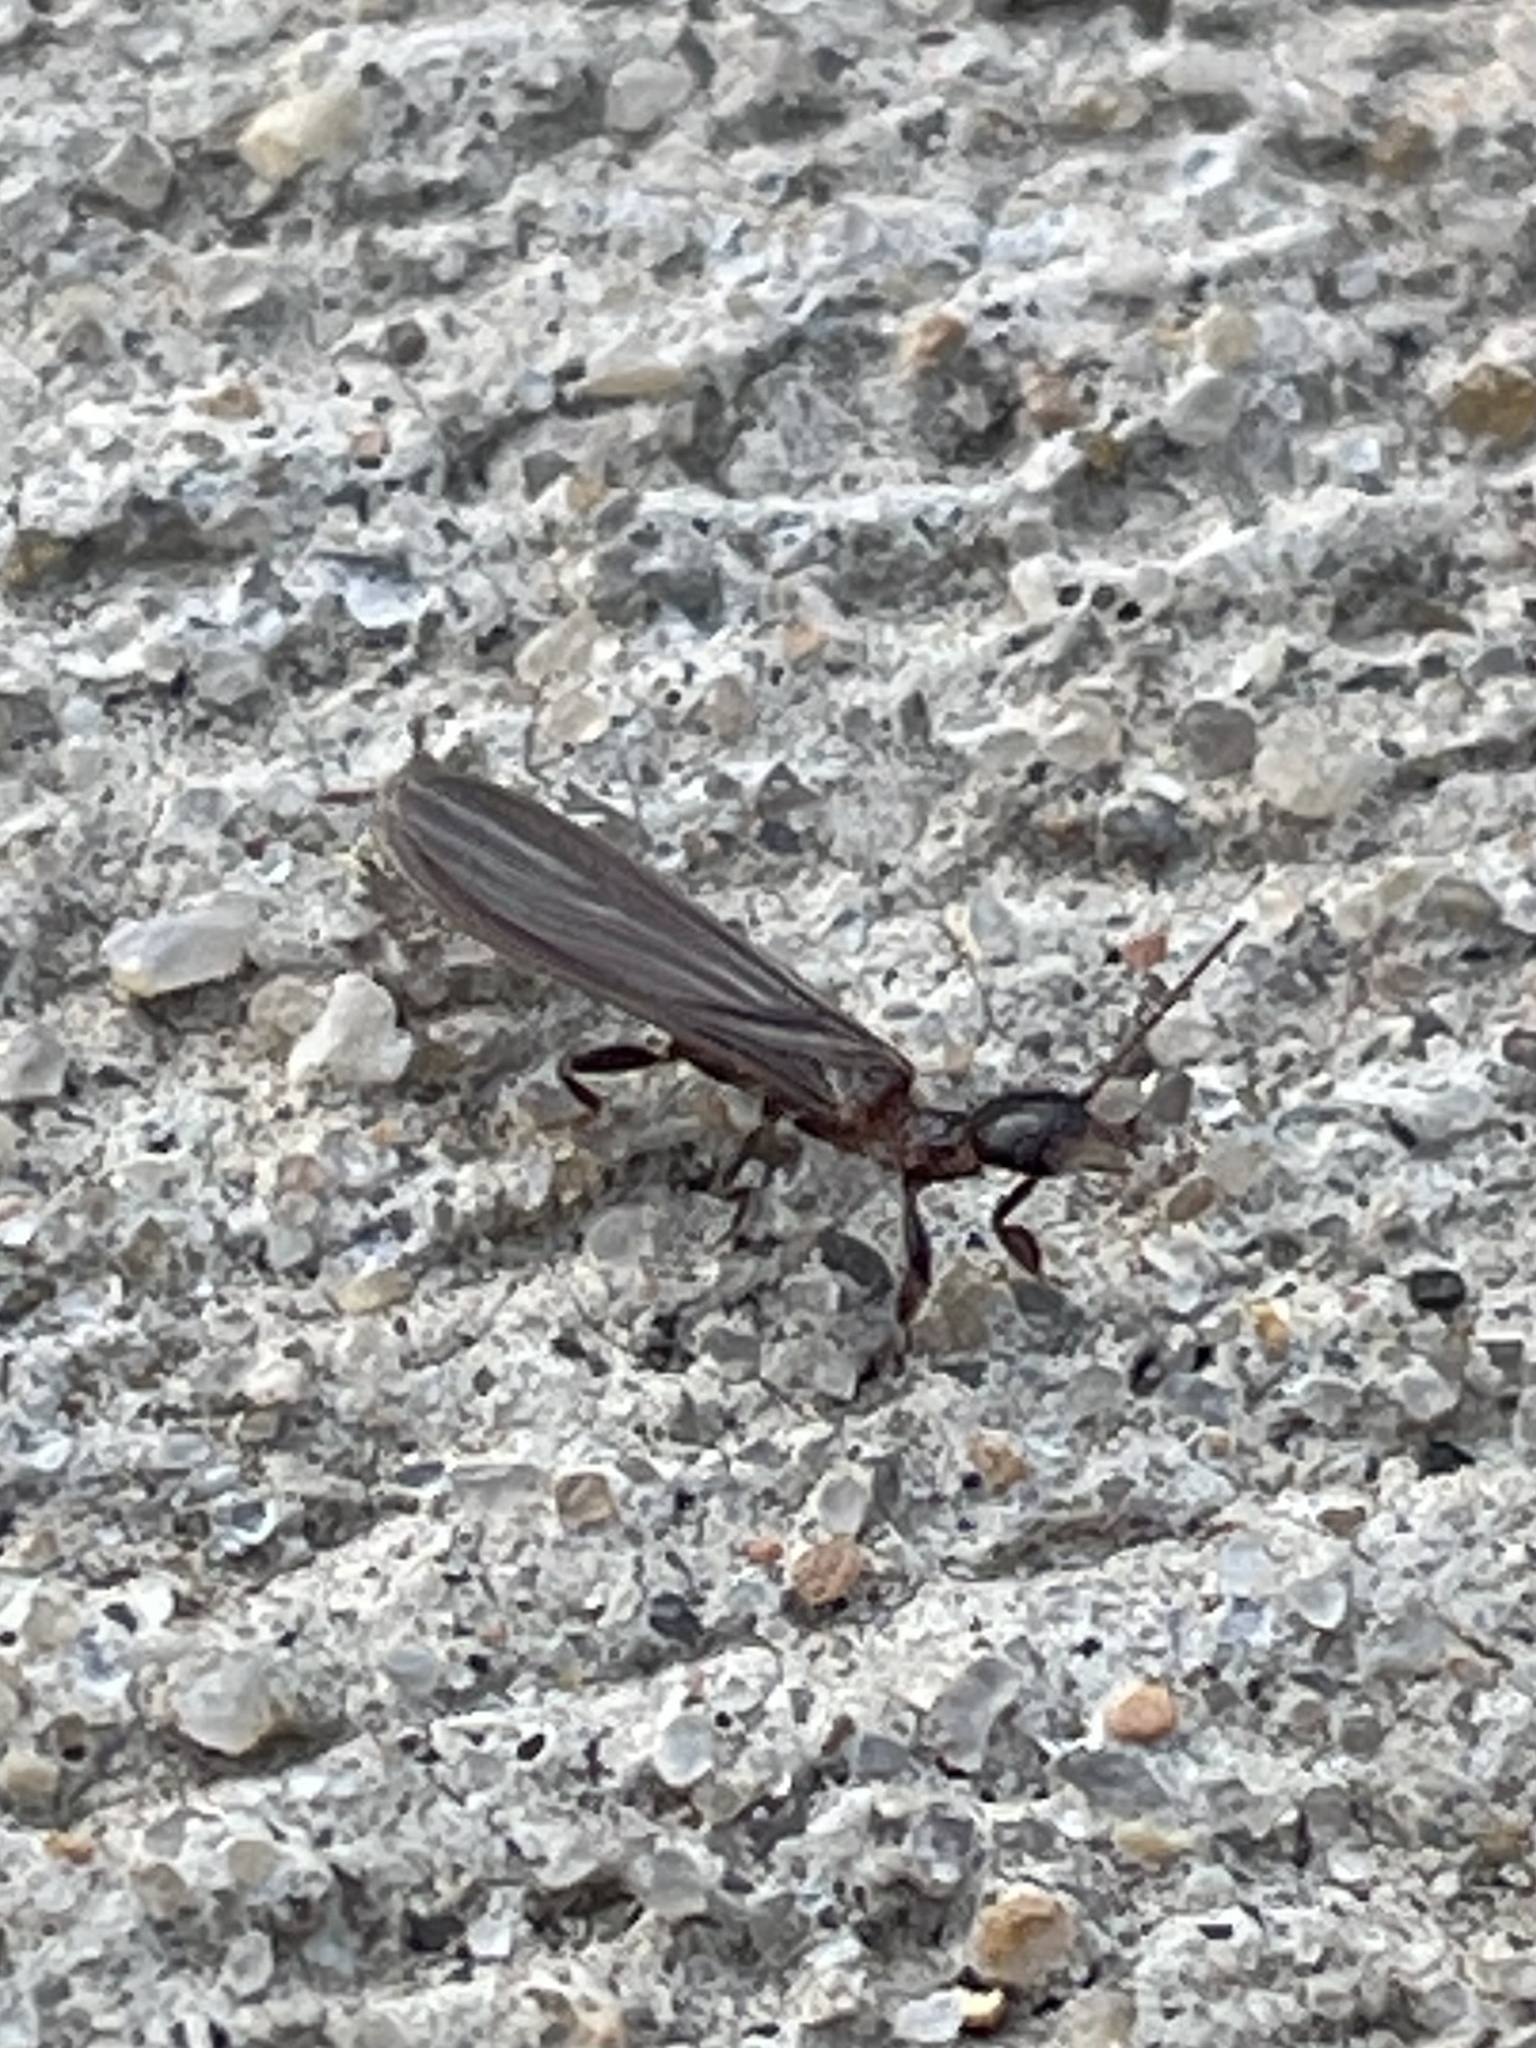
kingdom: Animalia
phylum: Arthropoda
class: Insecta
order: Embioptera
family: Oligotomidae
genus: Oligotoma
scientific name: Oligotoma nigra
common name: Black webspinner
